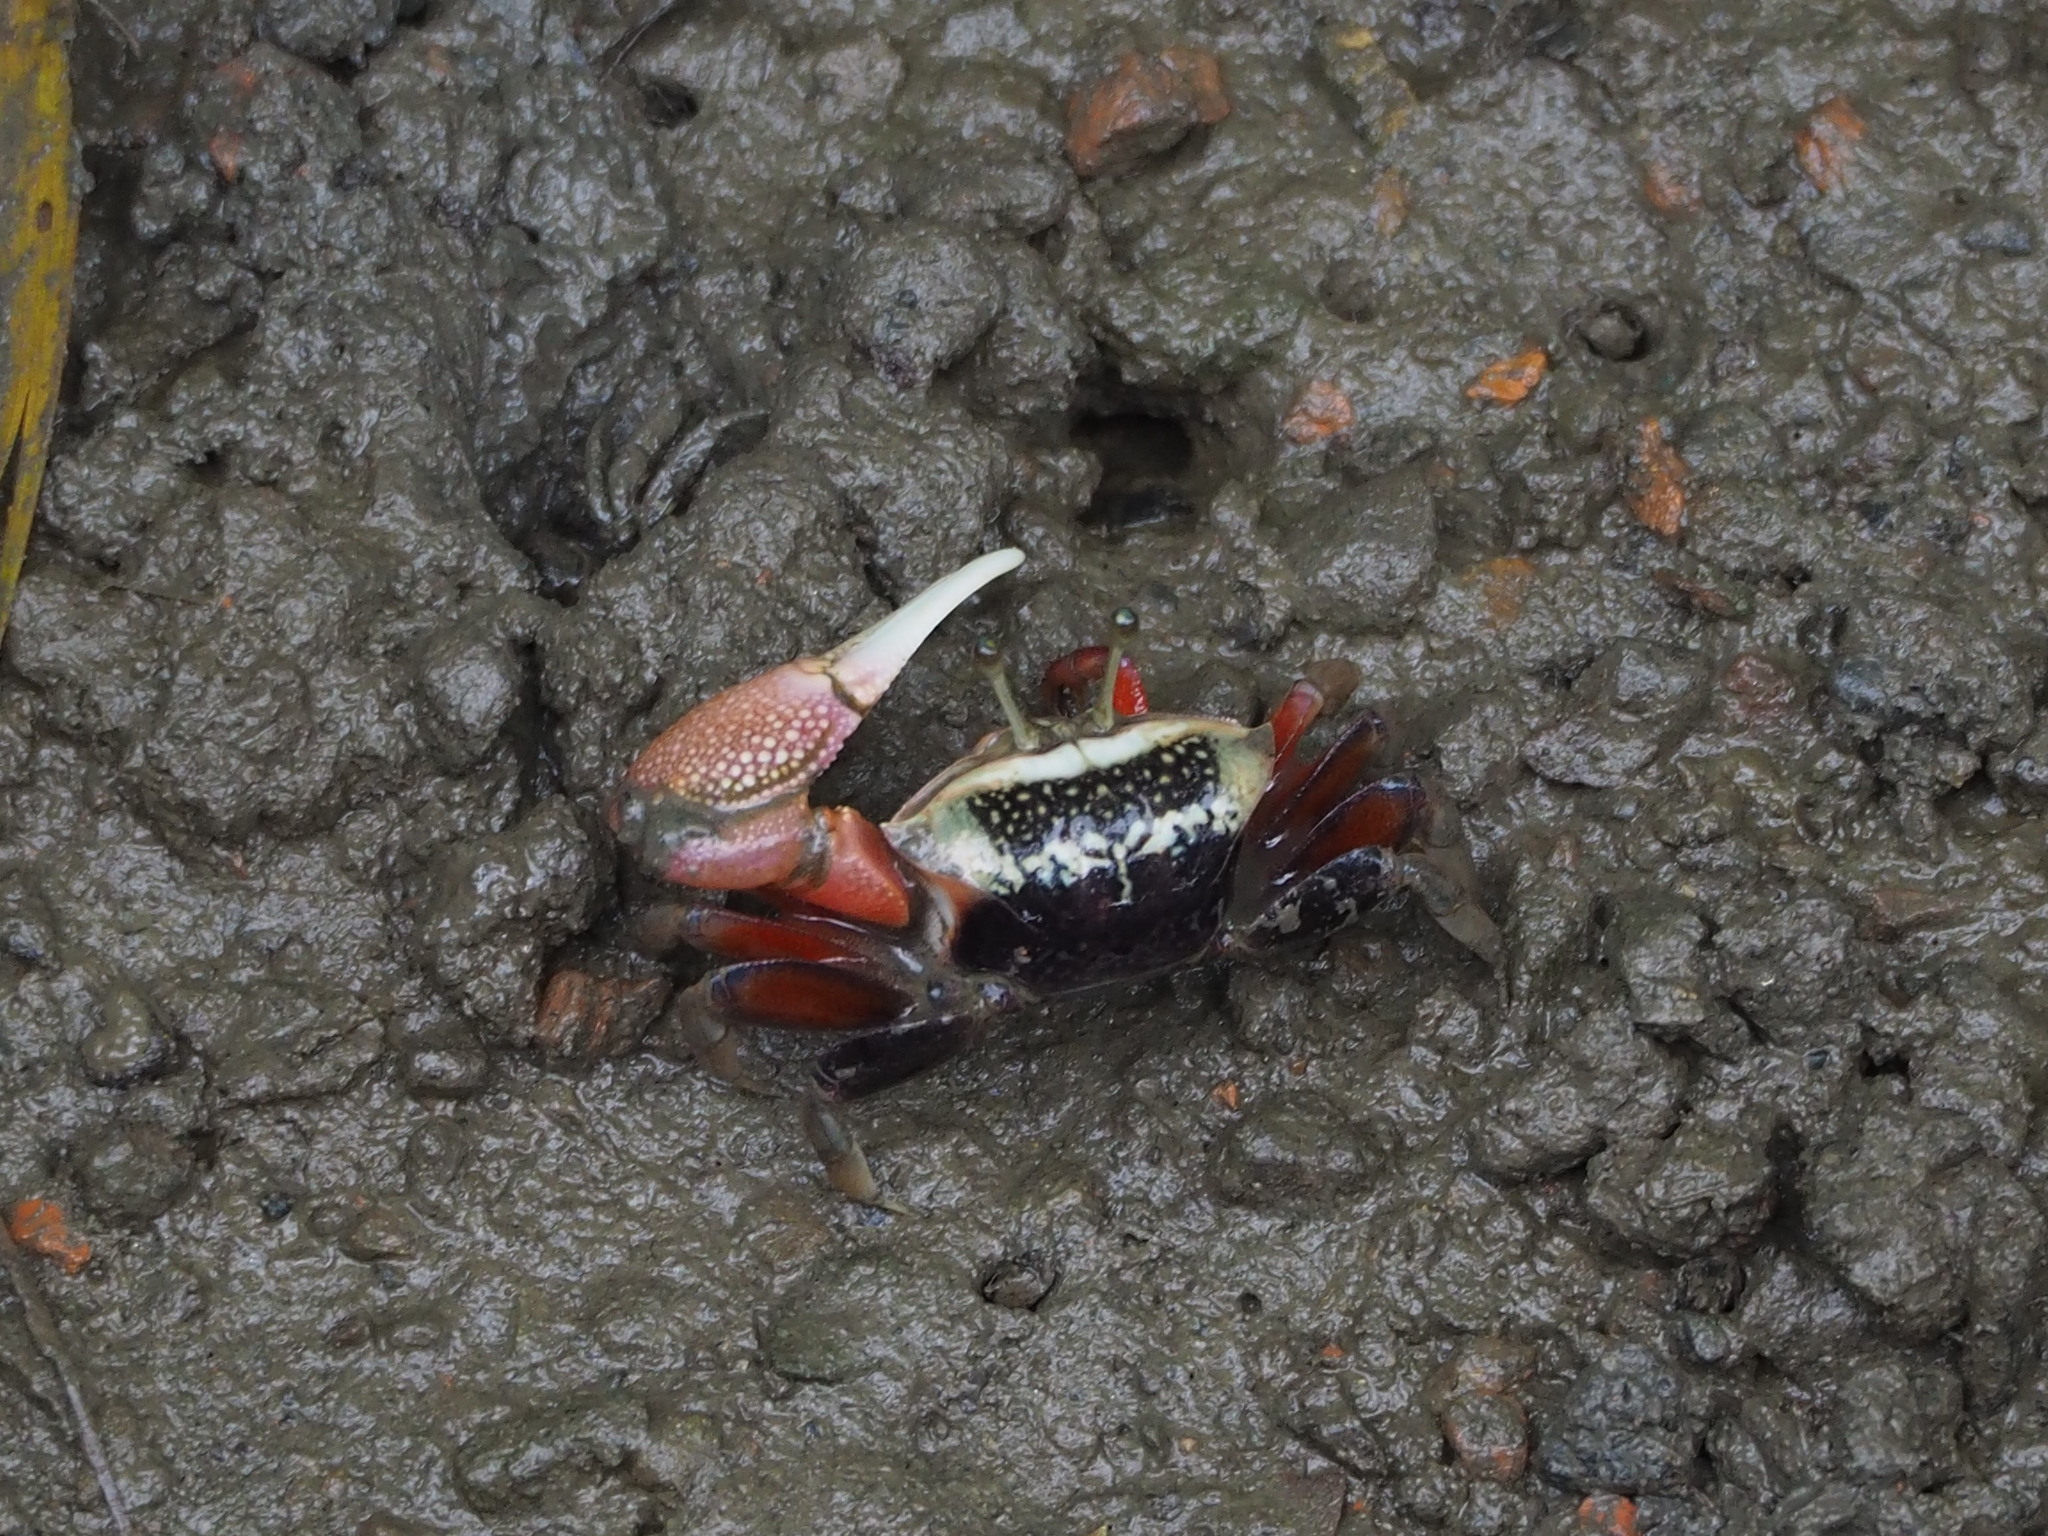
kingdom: Animalia
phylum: Arthropoda
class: Malacostraca
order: Decapoda
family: Ocypodidae
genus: Tubuca
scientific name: Tubuca arcuata
